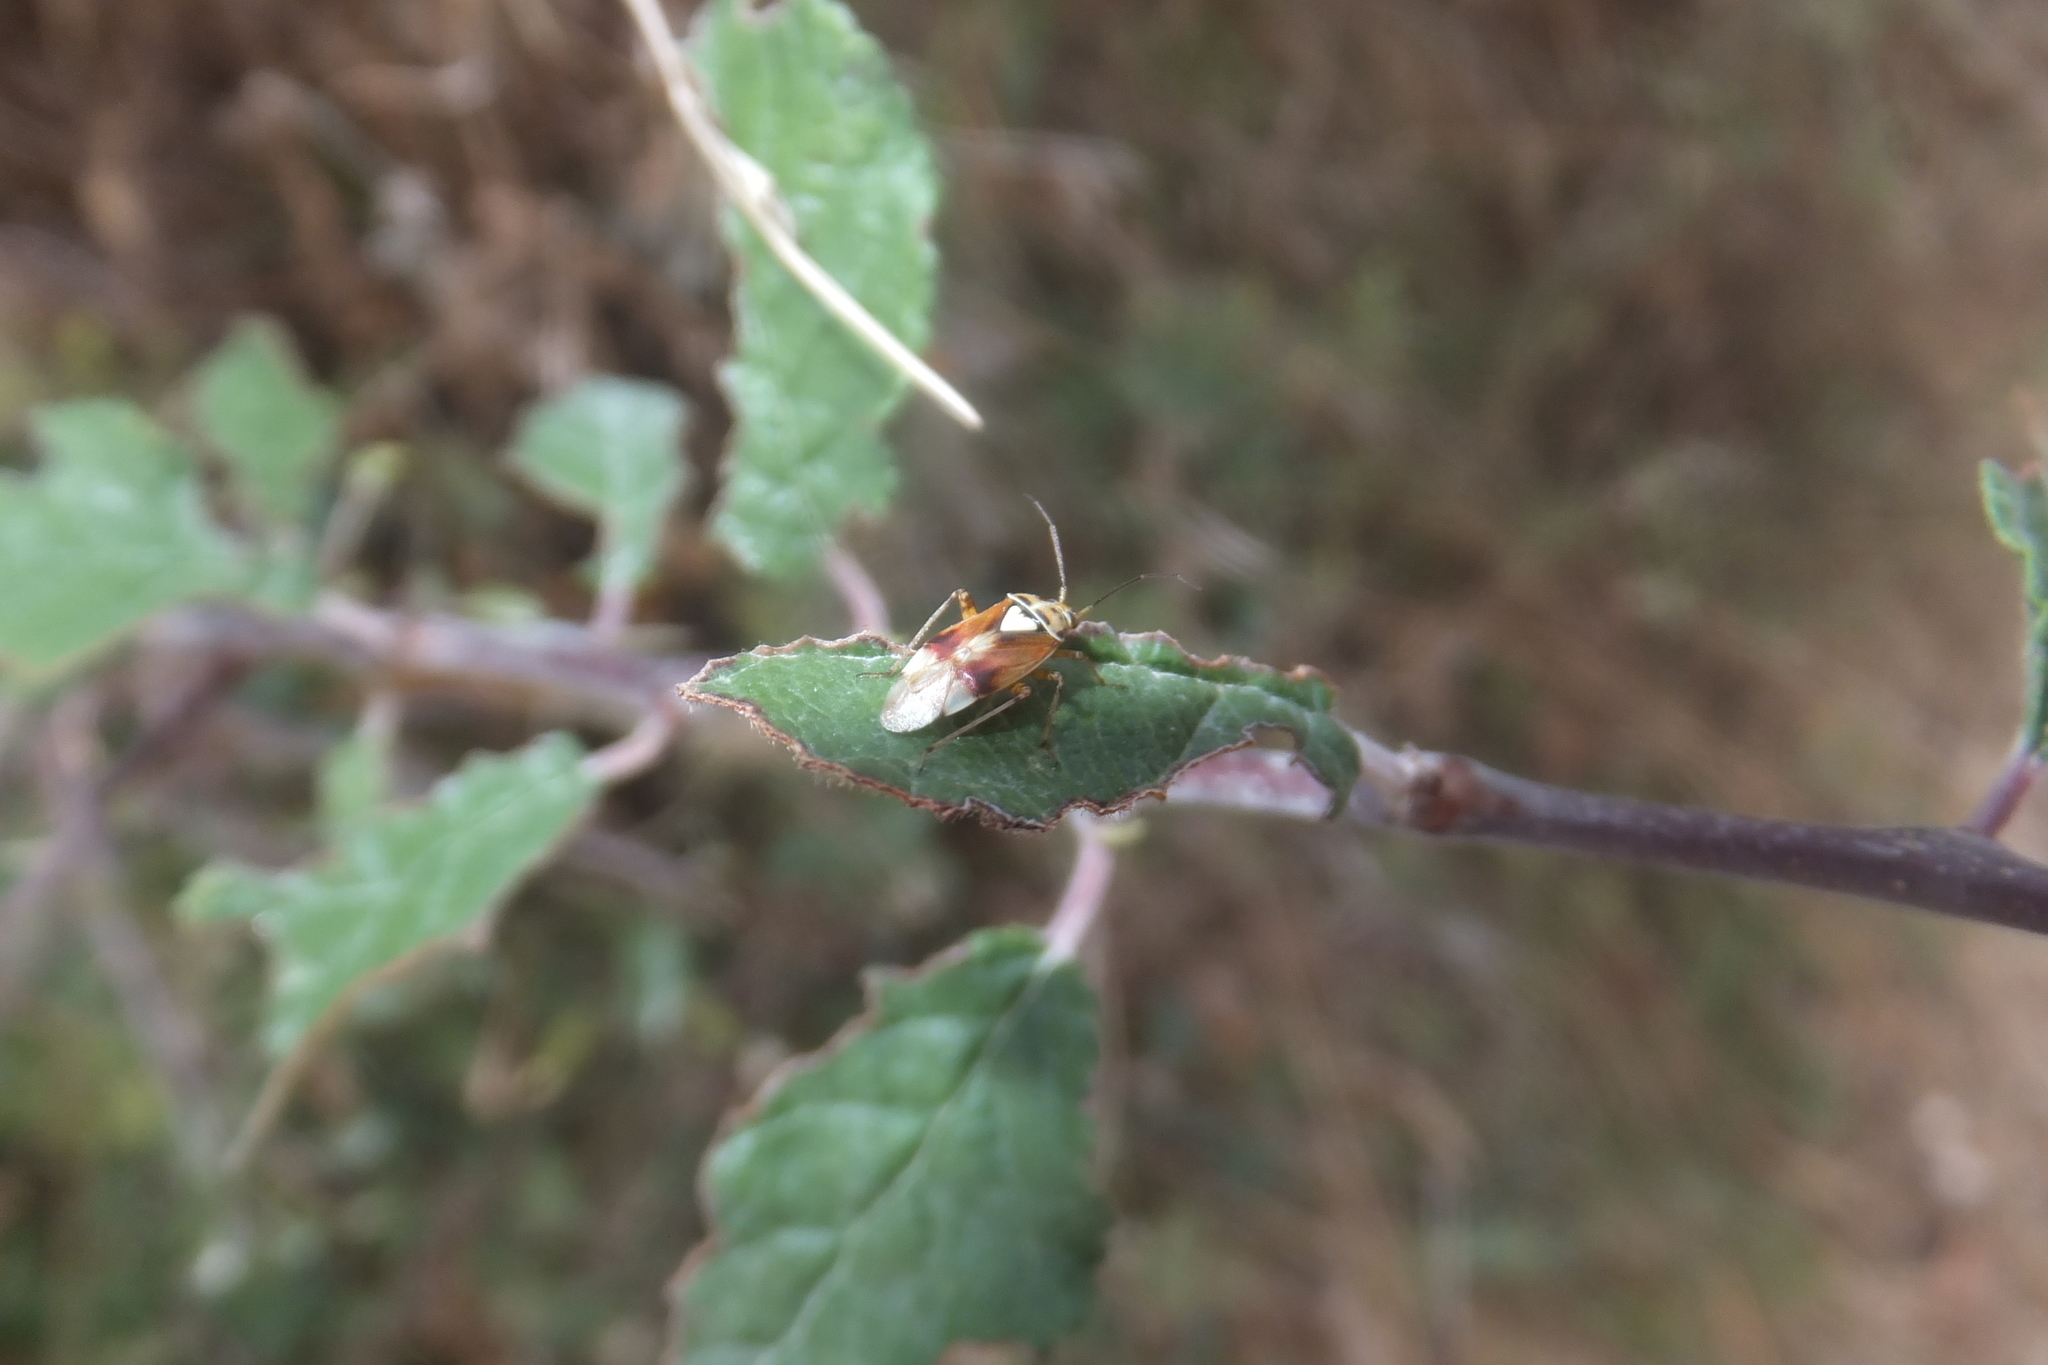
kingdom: Animalia
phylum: Arthropoda
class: Insecta
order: Hemiptera
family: Miridae
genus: Lygus
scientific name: Lygus pratensis
